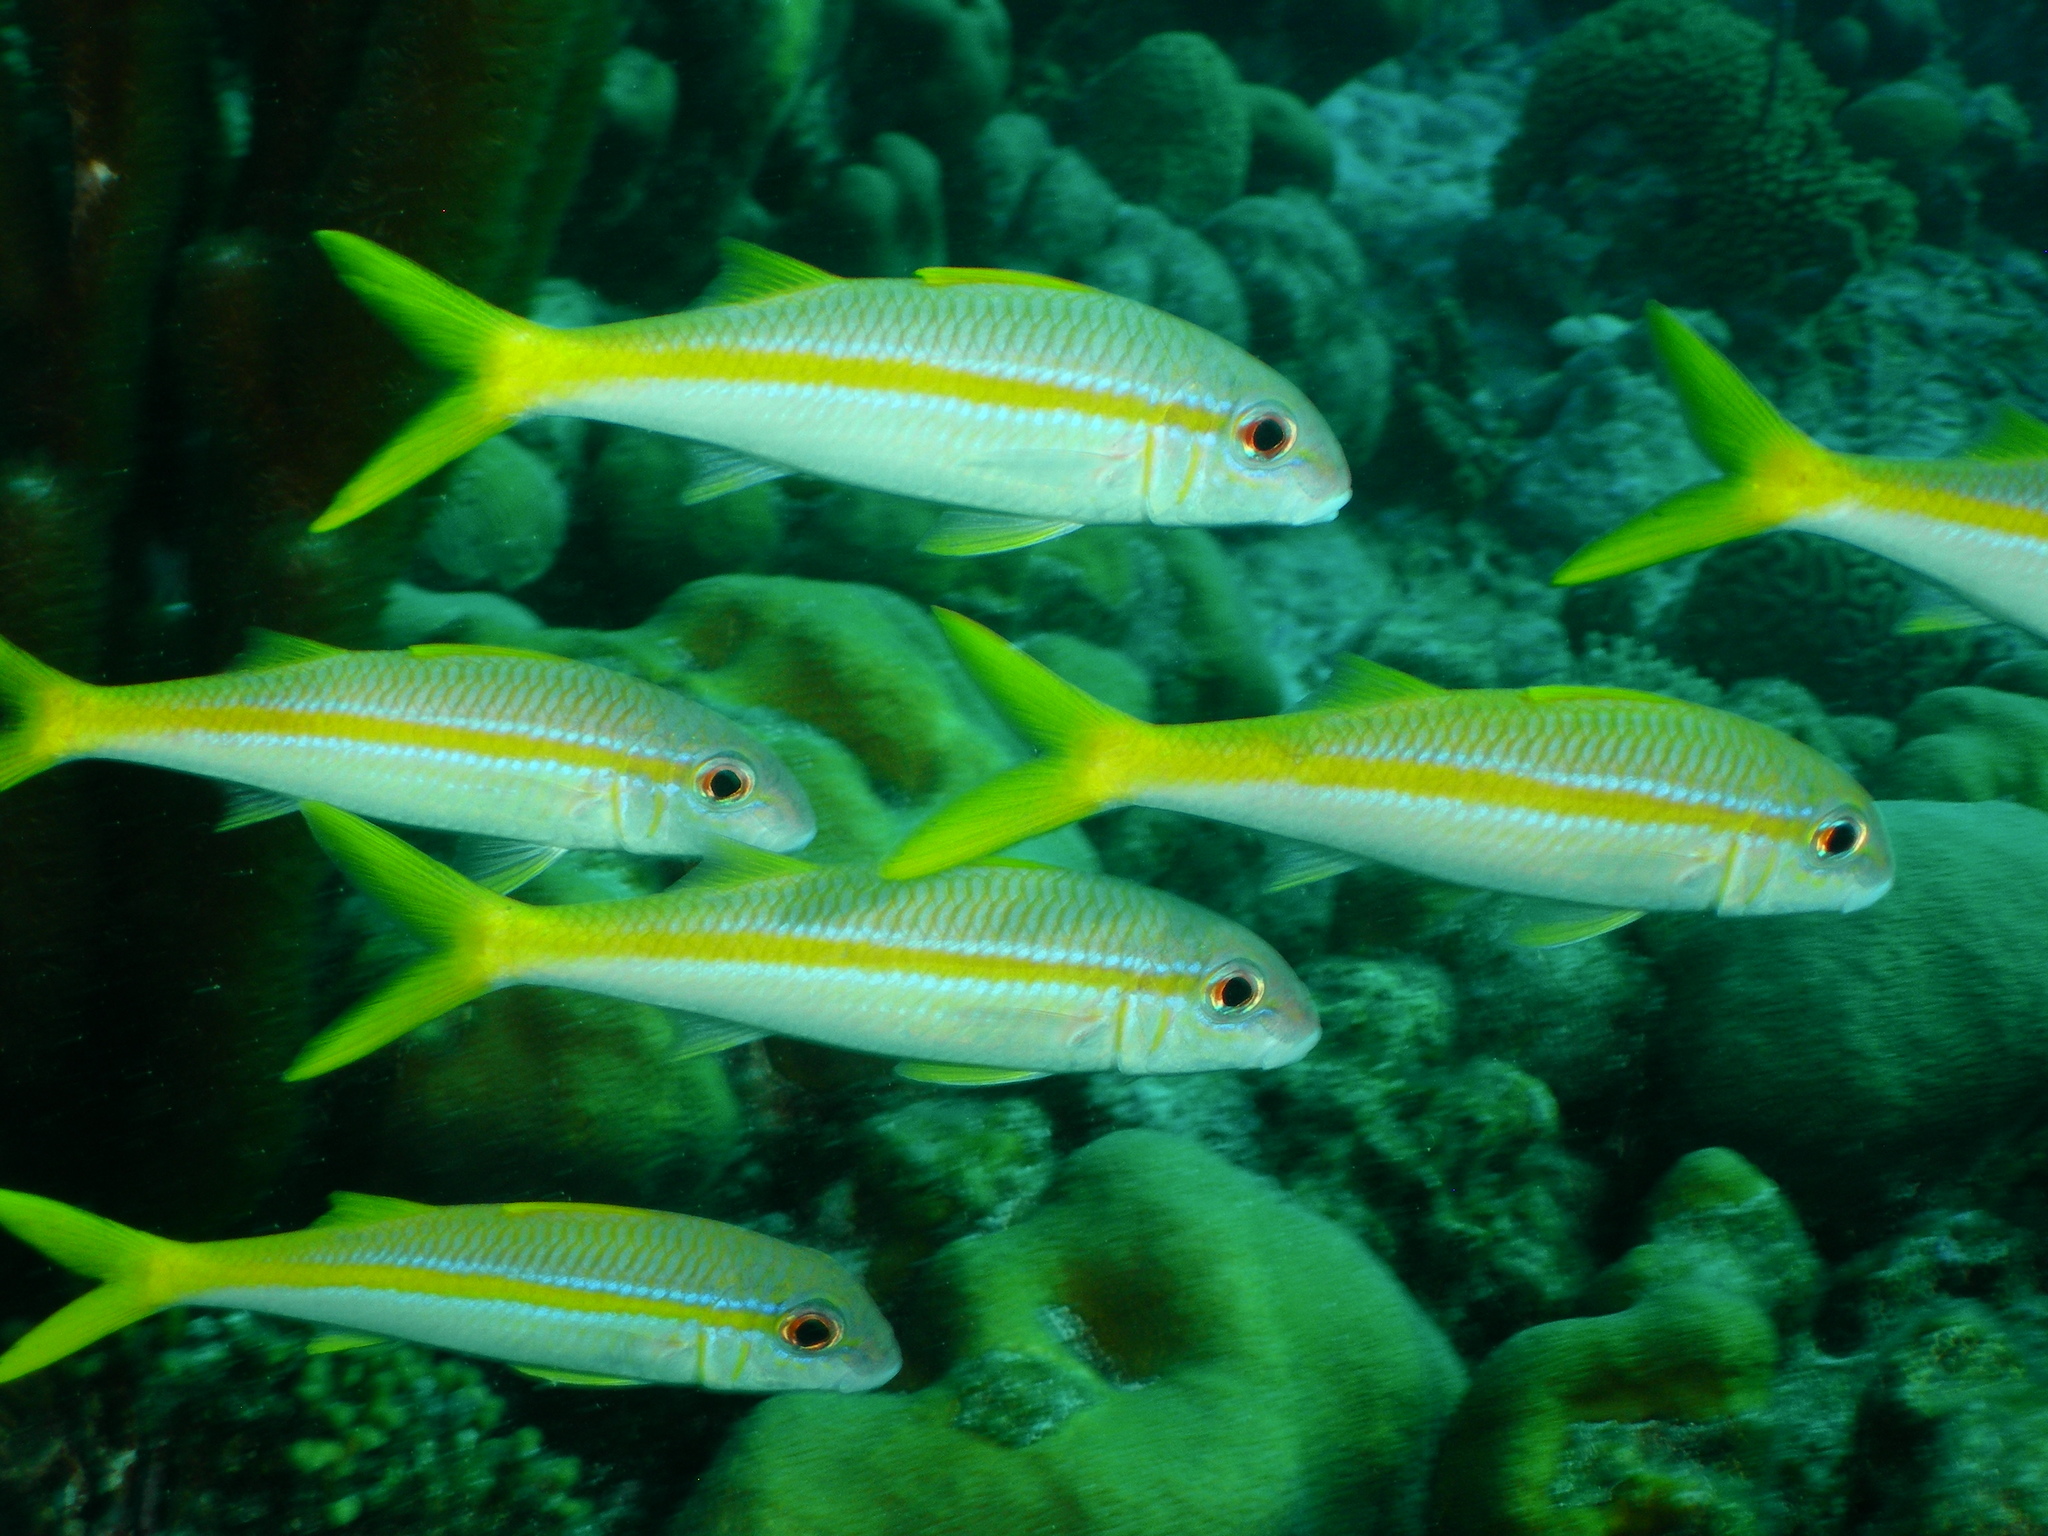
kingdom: Animalia
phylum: Chordata
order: Perciformes
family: Mullidae
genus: Mulloidichthys
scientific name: Mulloidichthys martinicus
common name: Yellow goatfish
